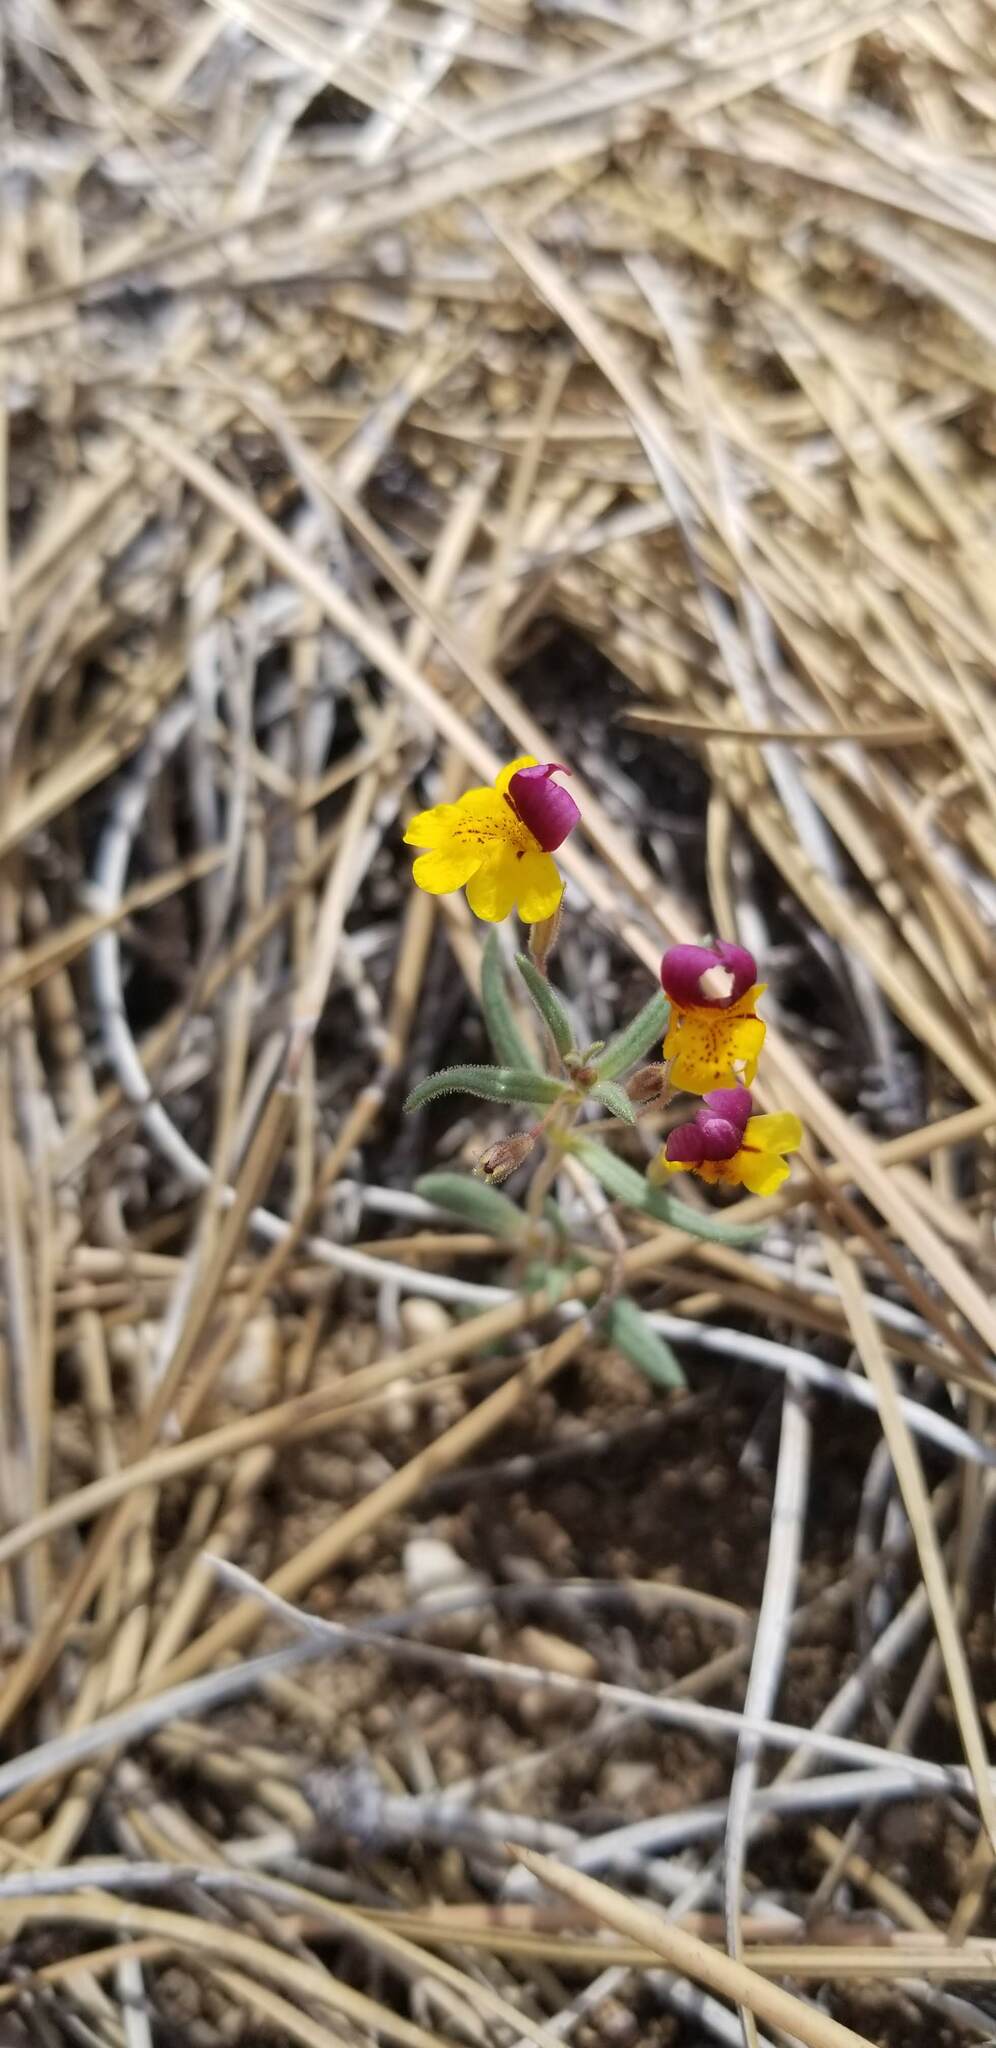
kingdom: Plantae
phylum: Tracheophyta
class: Magnoliopsida
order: Lamiales
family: Phrymaceae
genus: Erythranthe
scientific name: Erythranthe barbata
